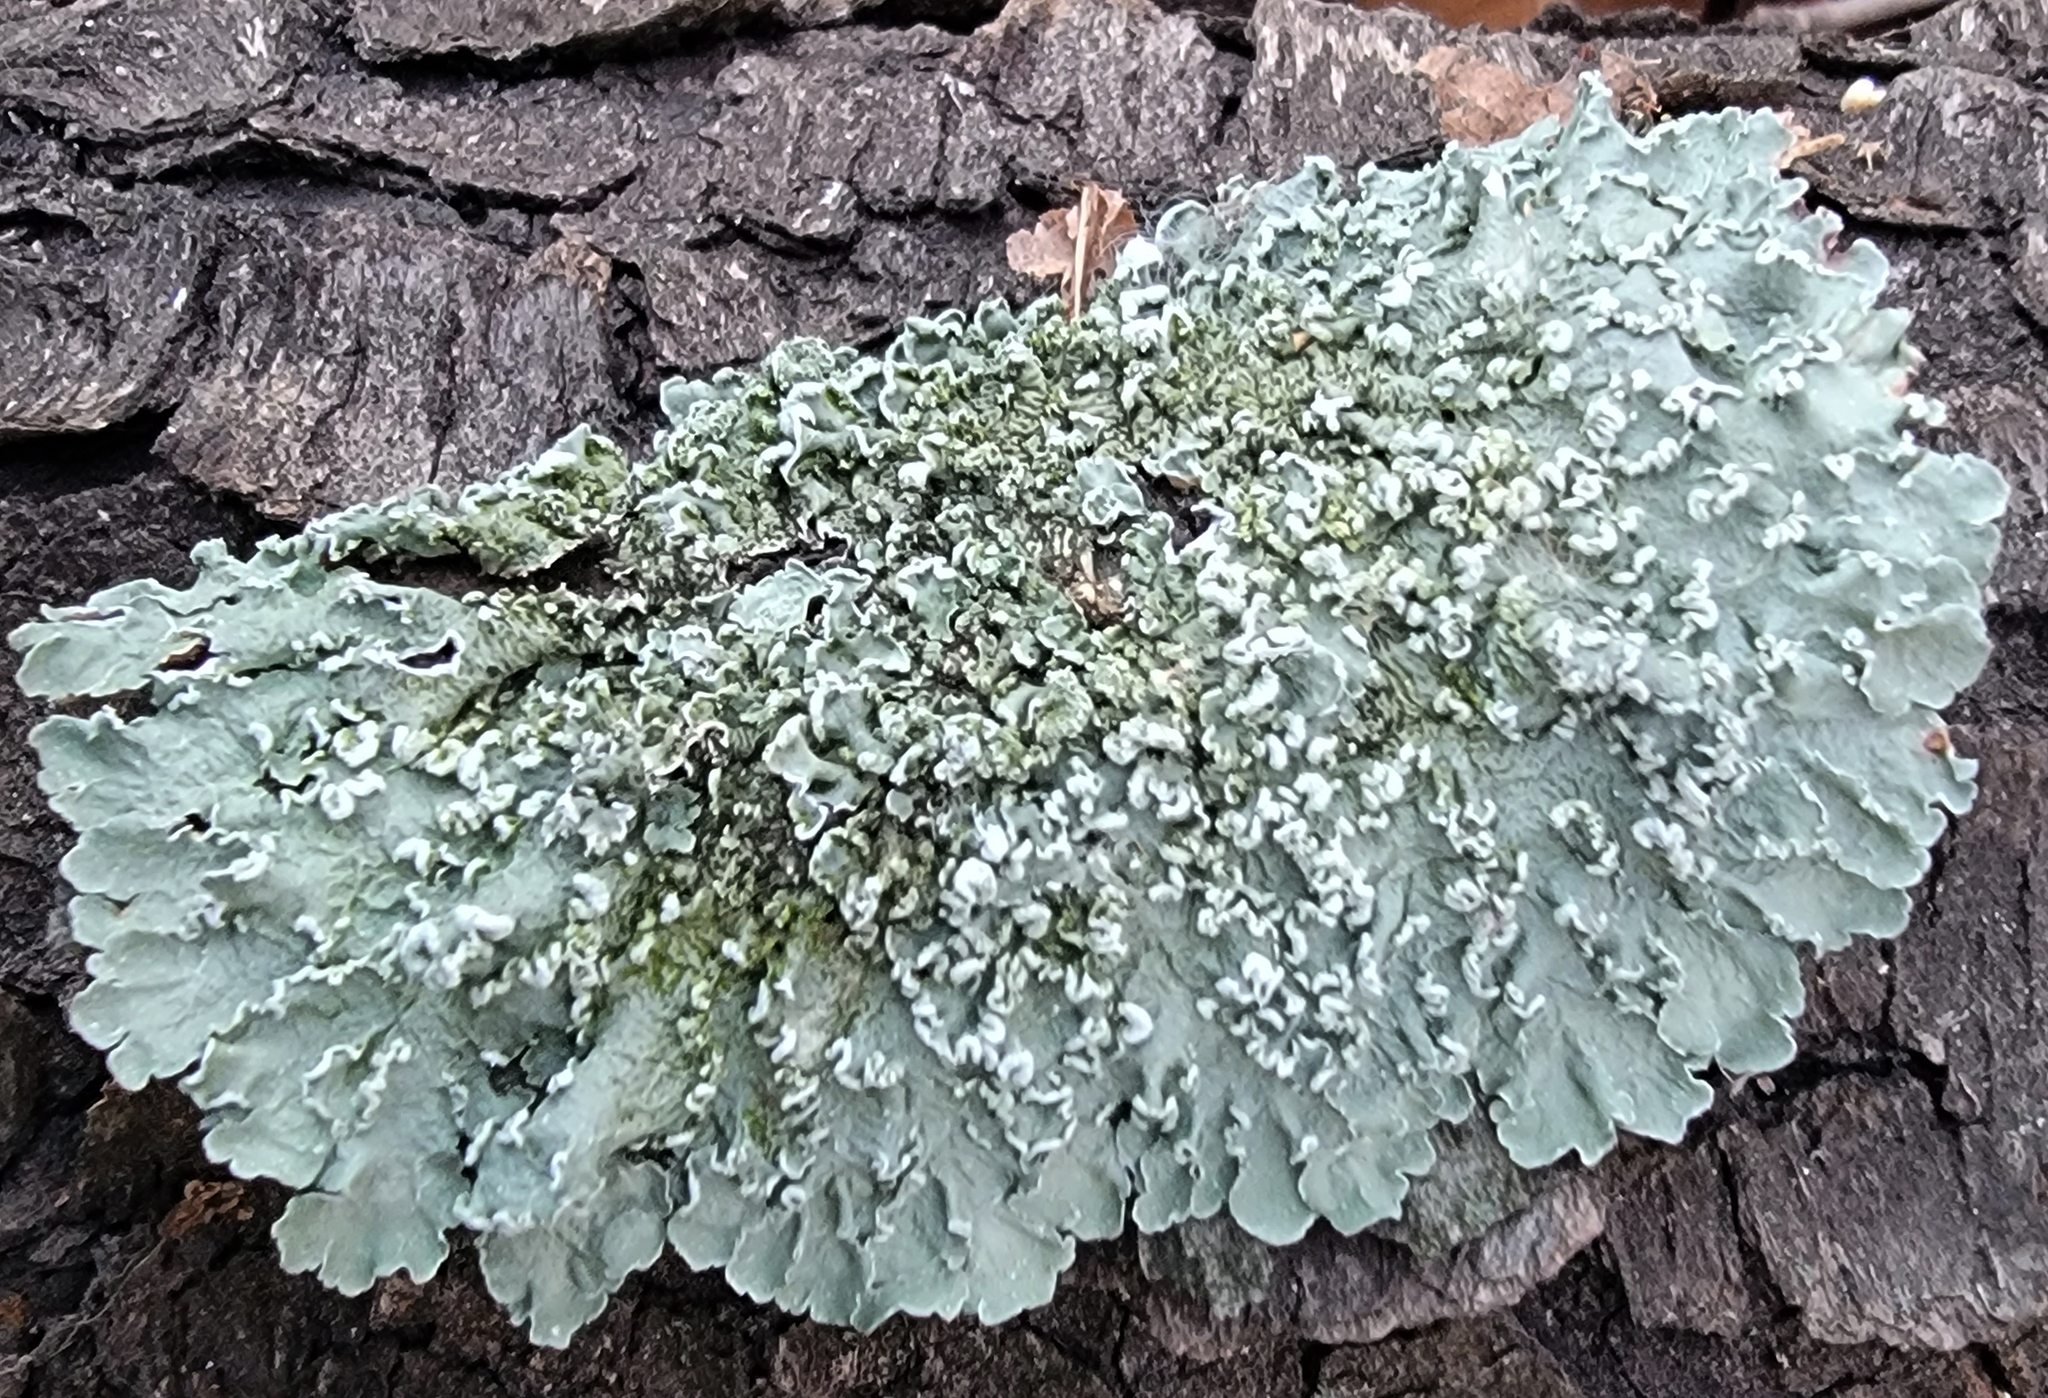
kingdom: Fungi
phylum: Ascomycota
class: Lecanoromycetes
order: Lecanorales
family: Parmeliaceae
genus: Flavopunctelia
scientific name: Flavopunctelia soredica
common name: Powder-edged speckled greenshield
